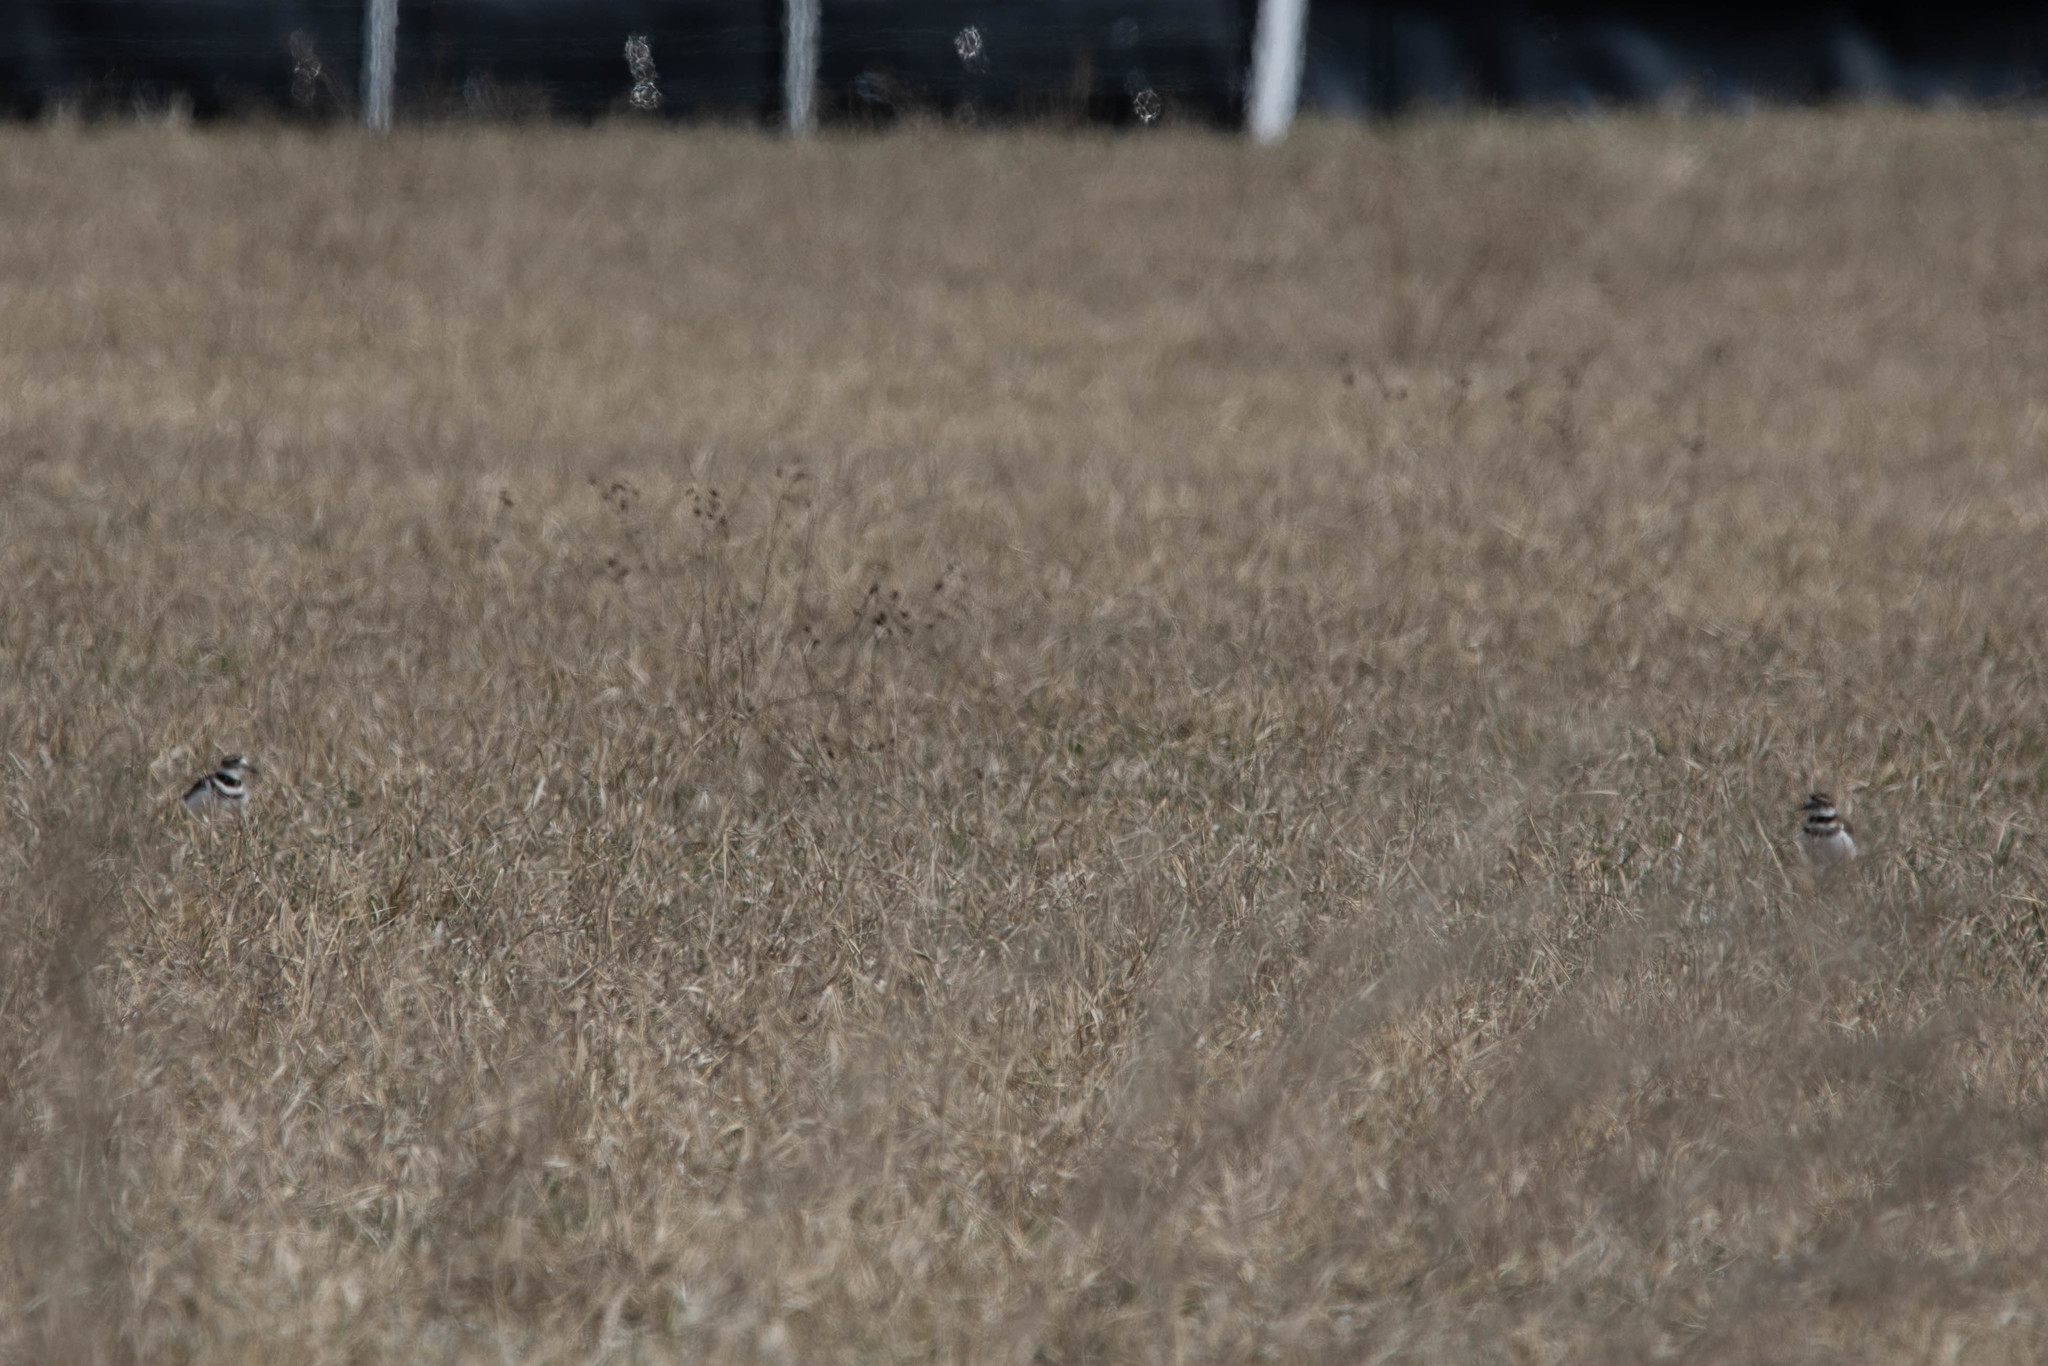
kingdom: Animalia
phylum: Chordata
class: Aves
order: Charadriiformes
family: Charadriidae
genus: Charadrius
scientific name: Charadrius vociferus
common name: Killdeer
